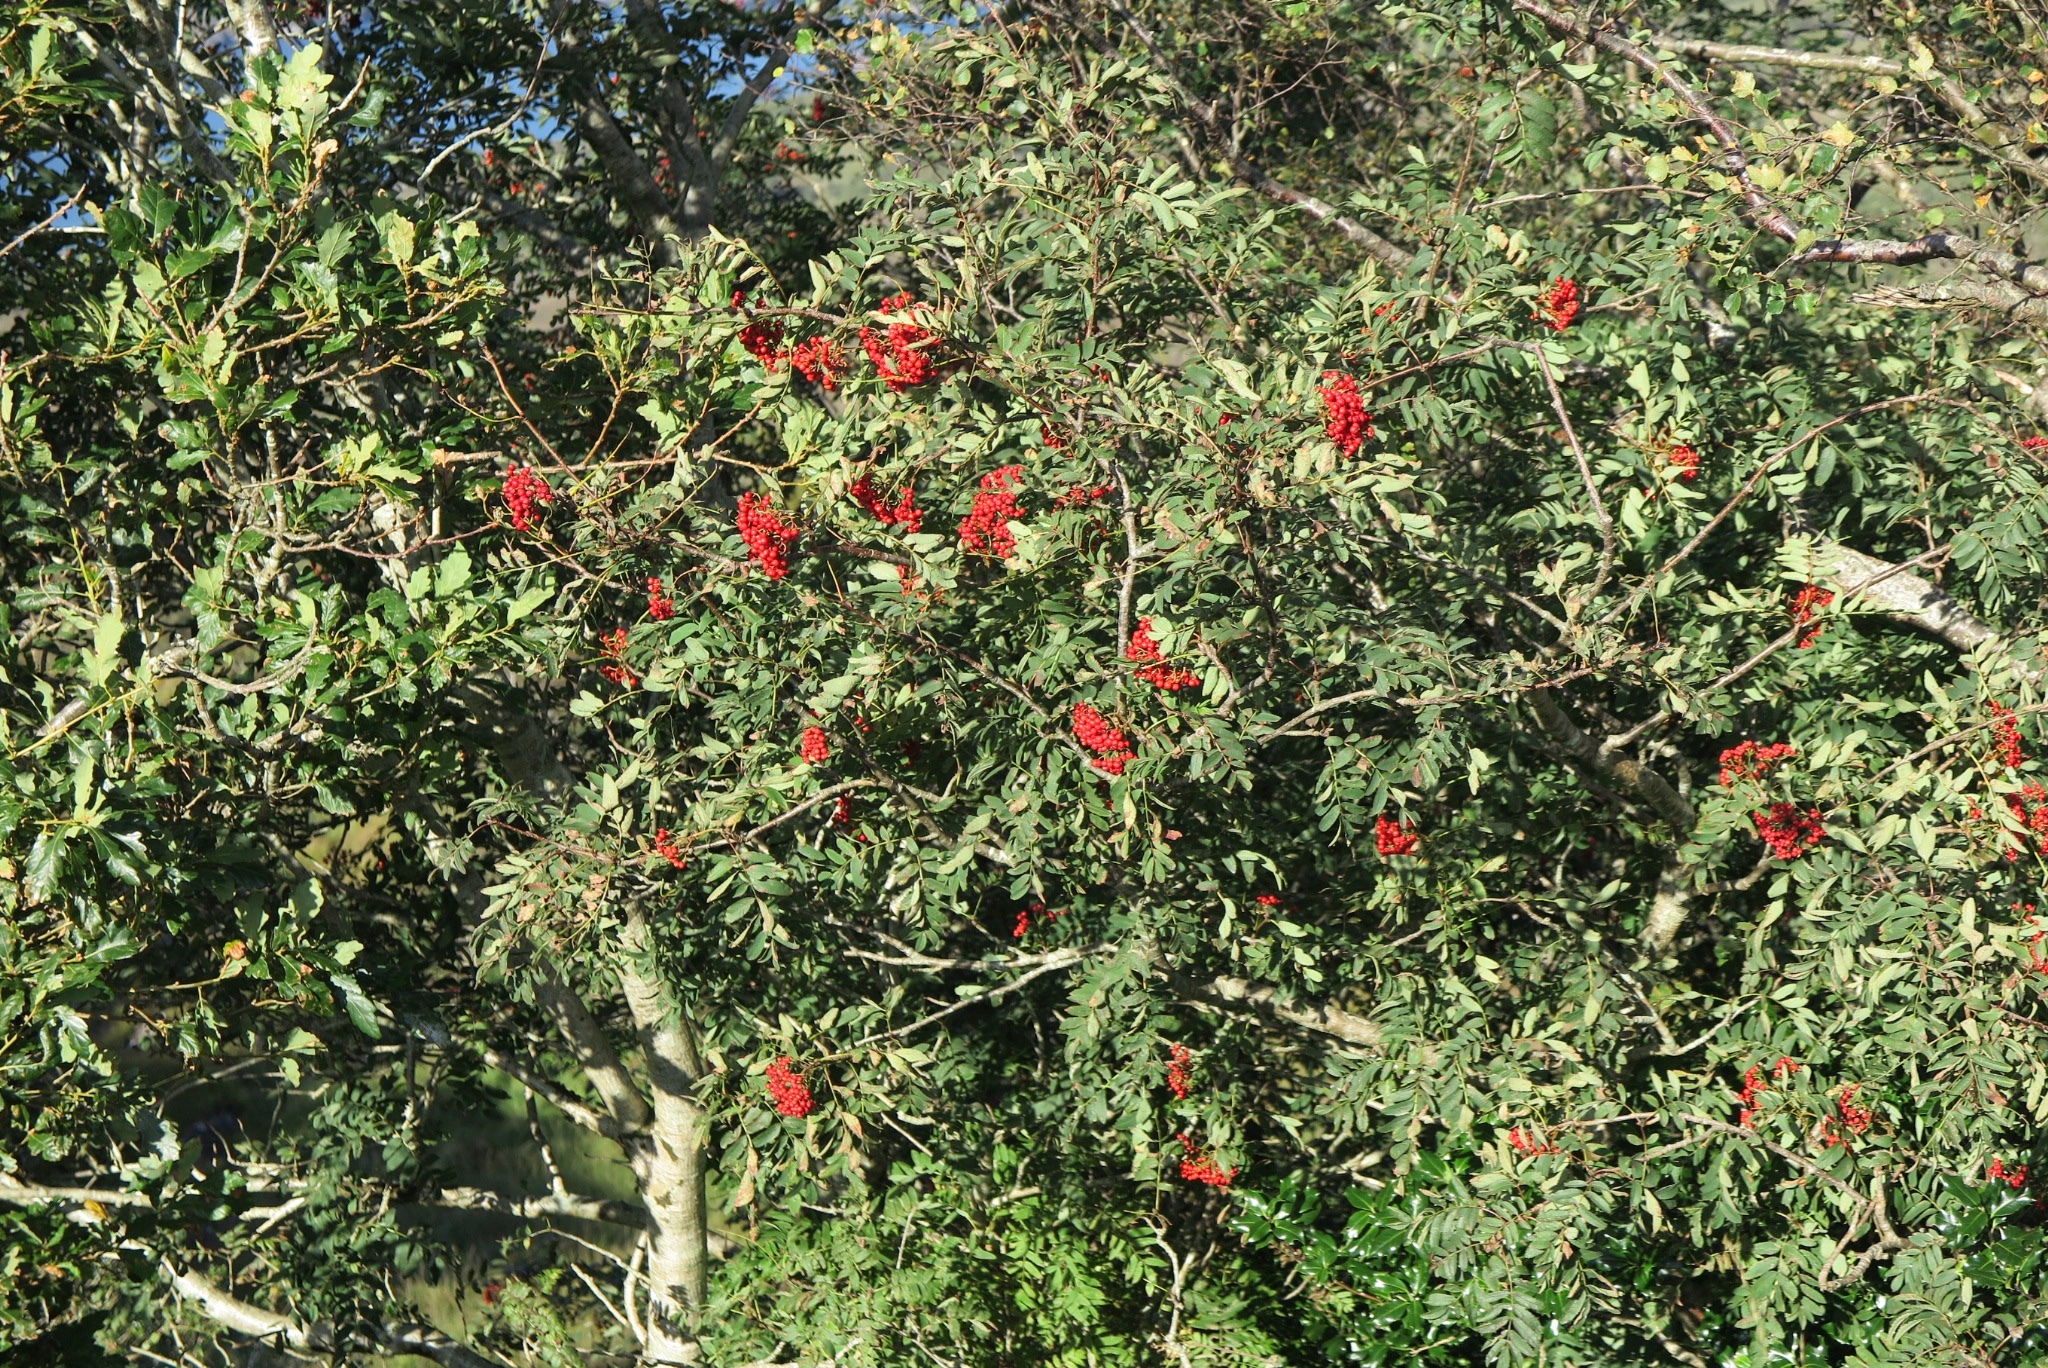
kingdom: Plantae
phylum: Tracheophyta
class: Magnoliopsida
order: Rosales
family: Rosaceae
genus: Sorbus
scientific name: Sorbus aucuparia
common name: Rowan
